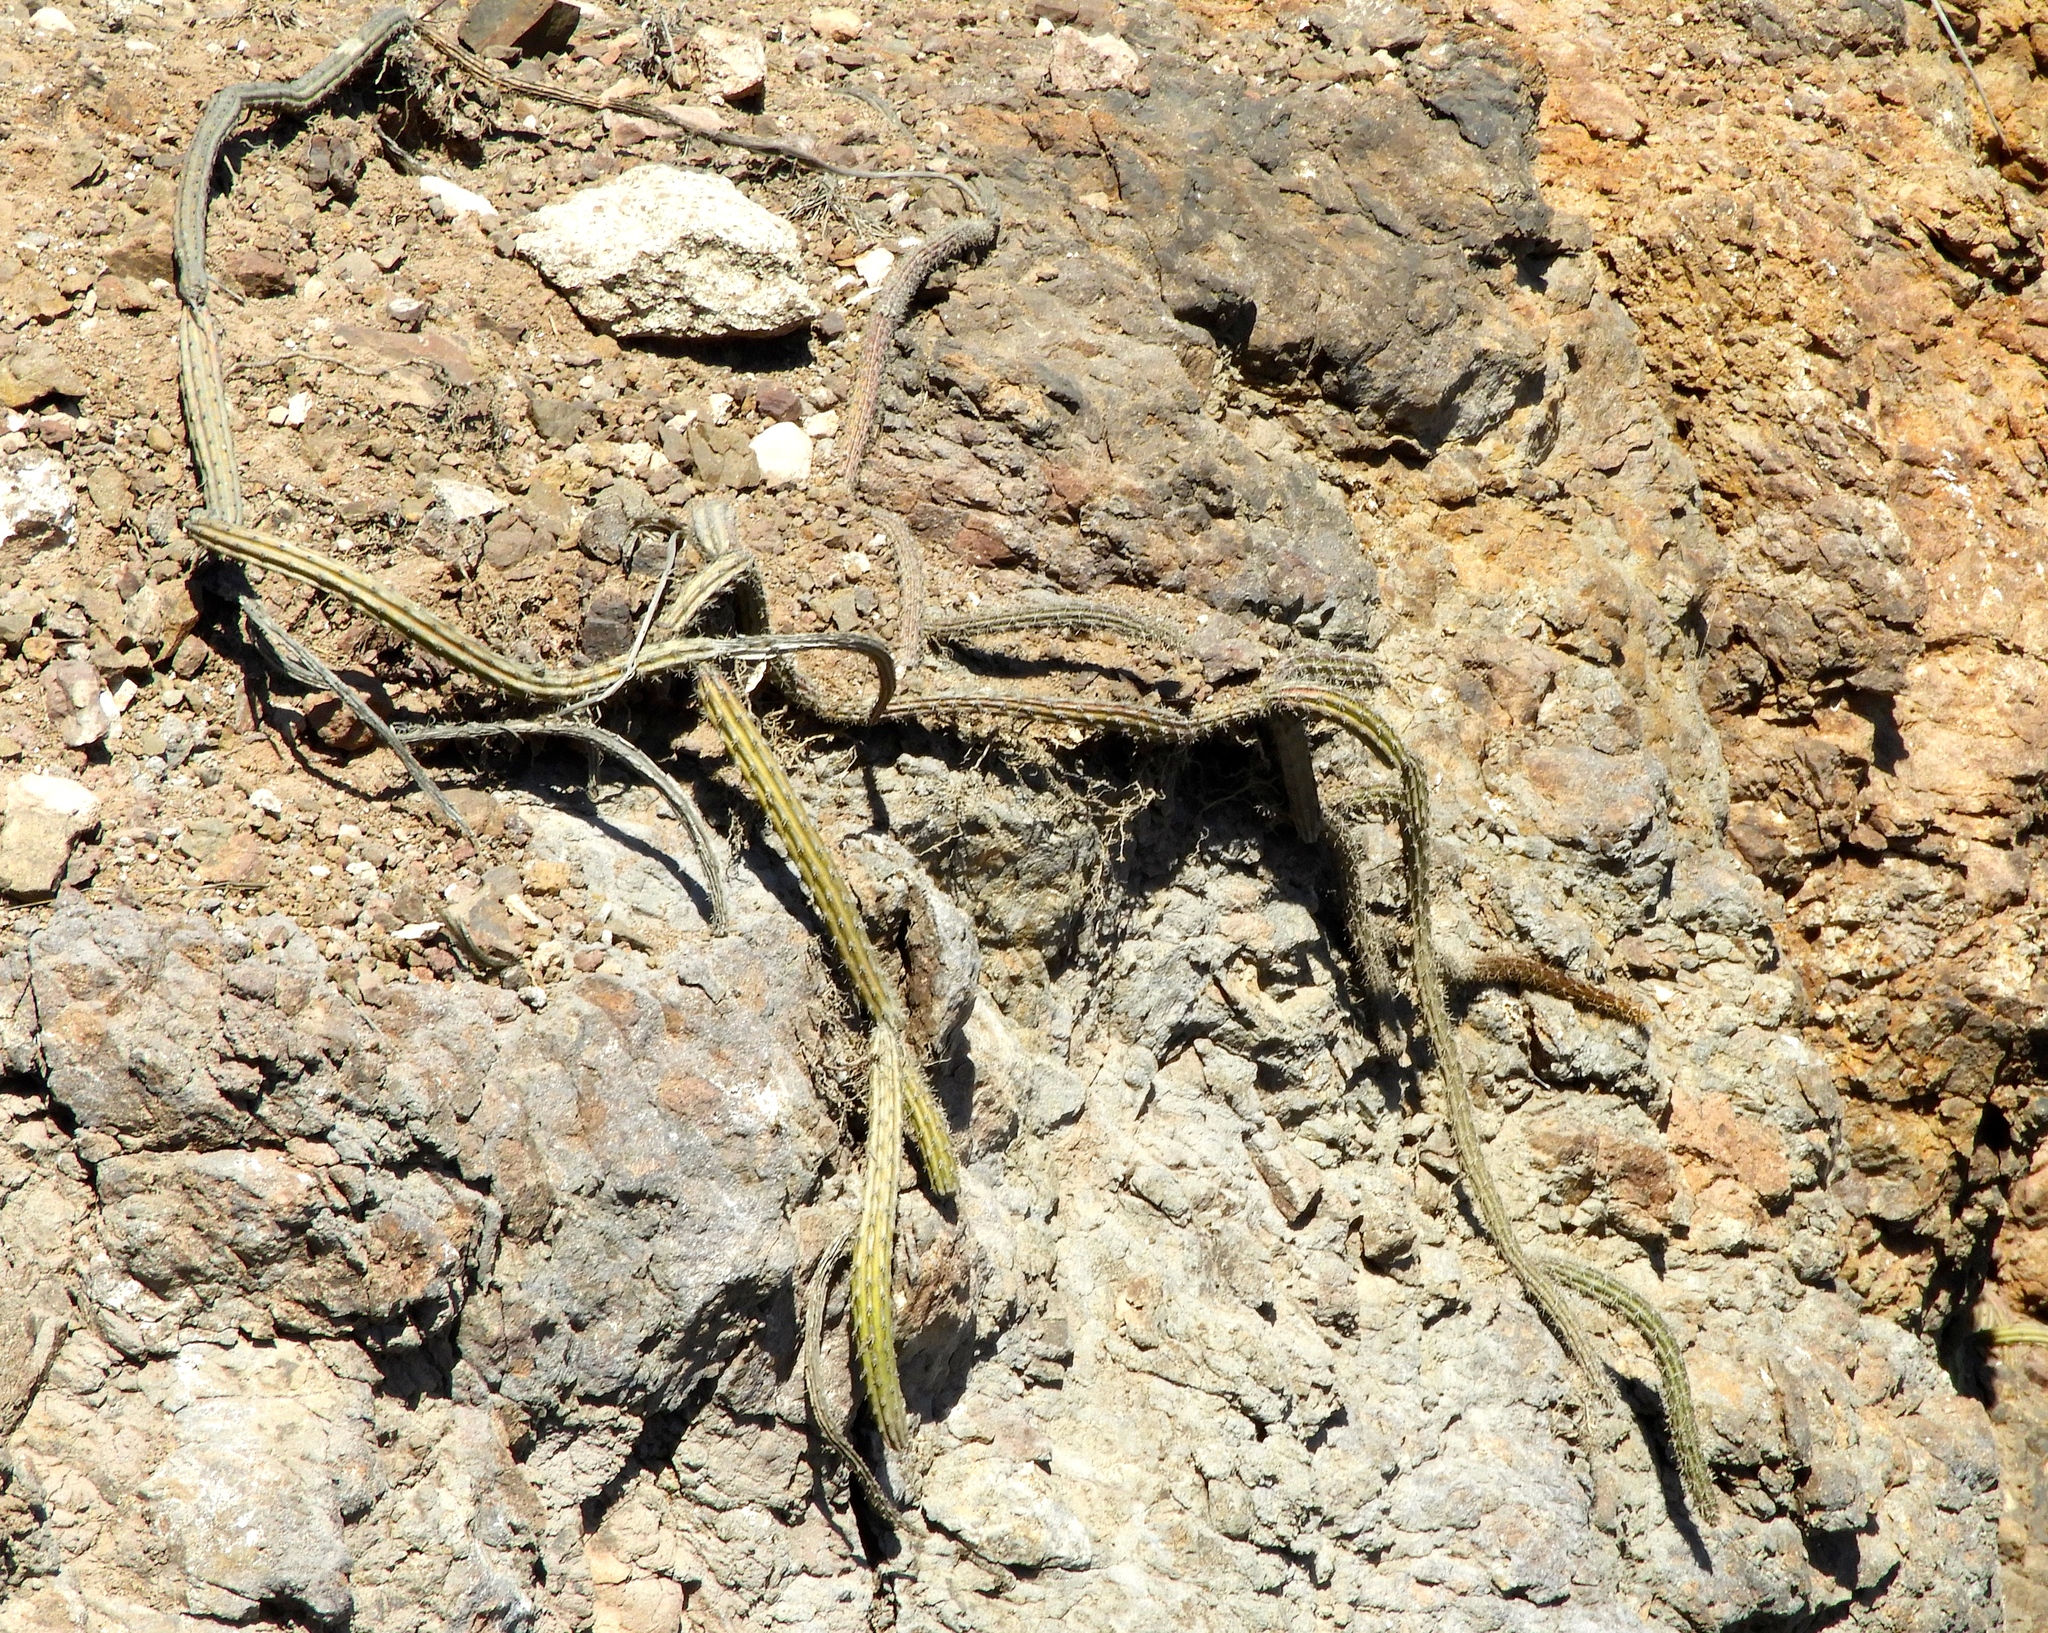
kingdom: Plantae
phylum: Tracheophyta
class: Magnoliopsida
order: Caryophyllales
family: Cactaceae
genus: Selenicereus
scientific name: Selenicereus vagans
